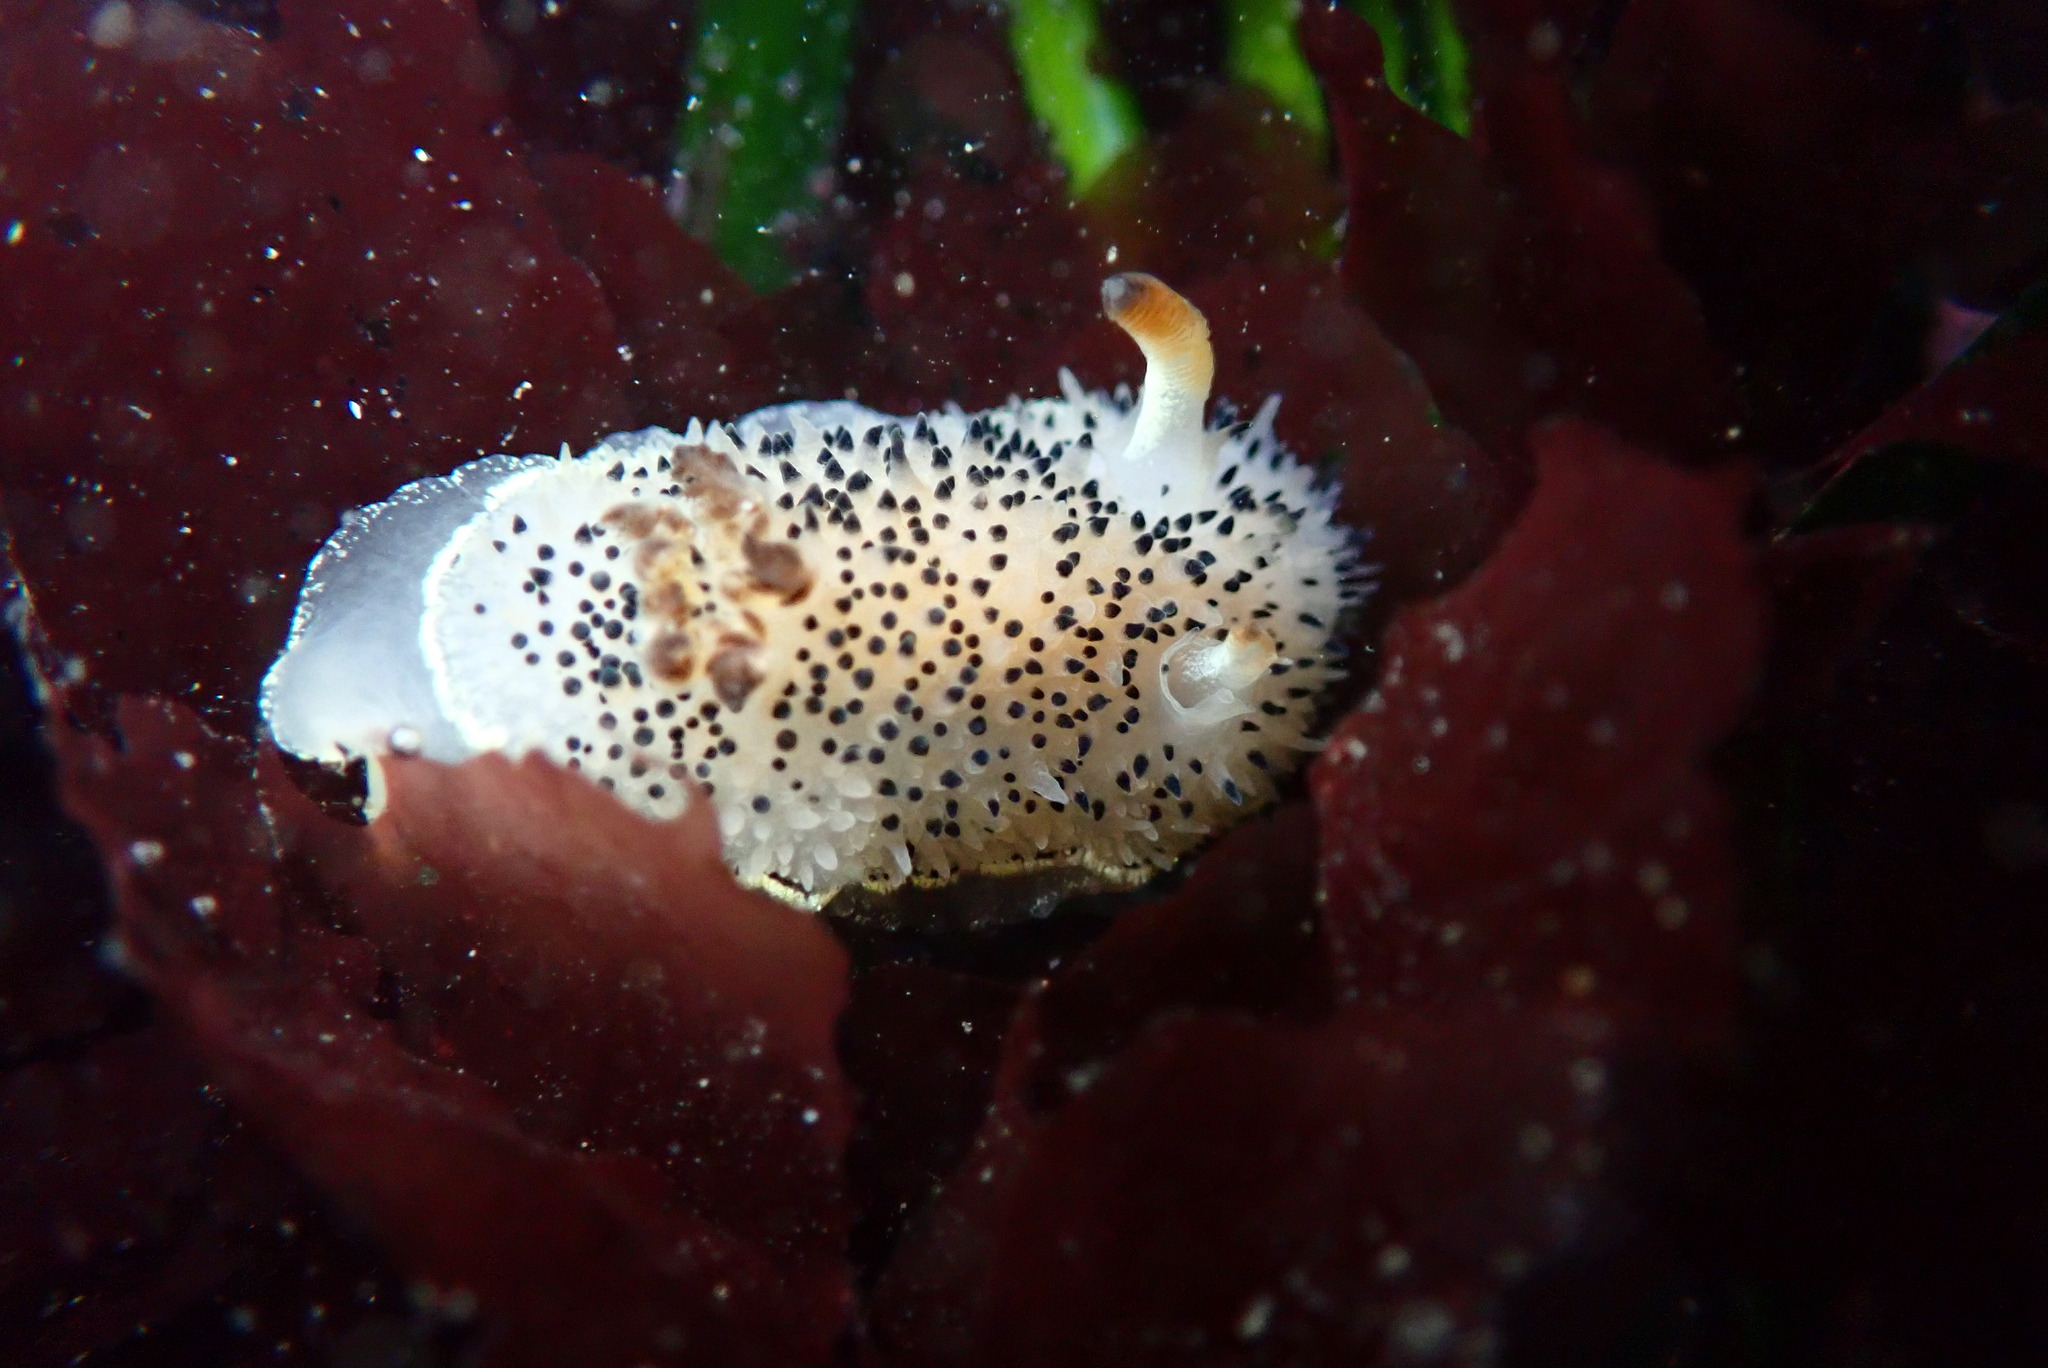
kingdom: Animalia
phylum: Mollusca
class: Gastropoda
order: Nudibranchia
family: Onchidorididae
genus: Acanthodoris
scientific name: Acanthodoris rhodoceras
